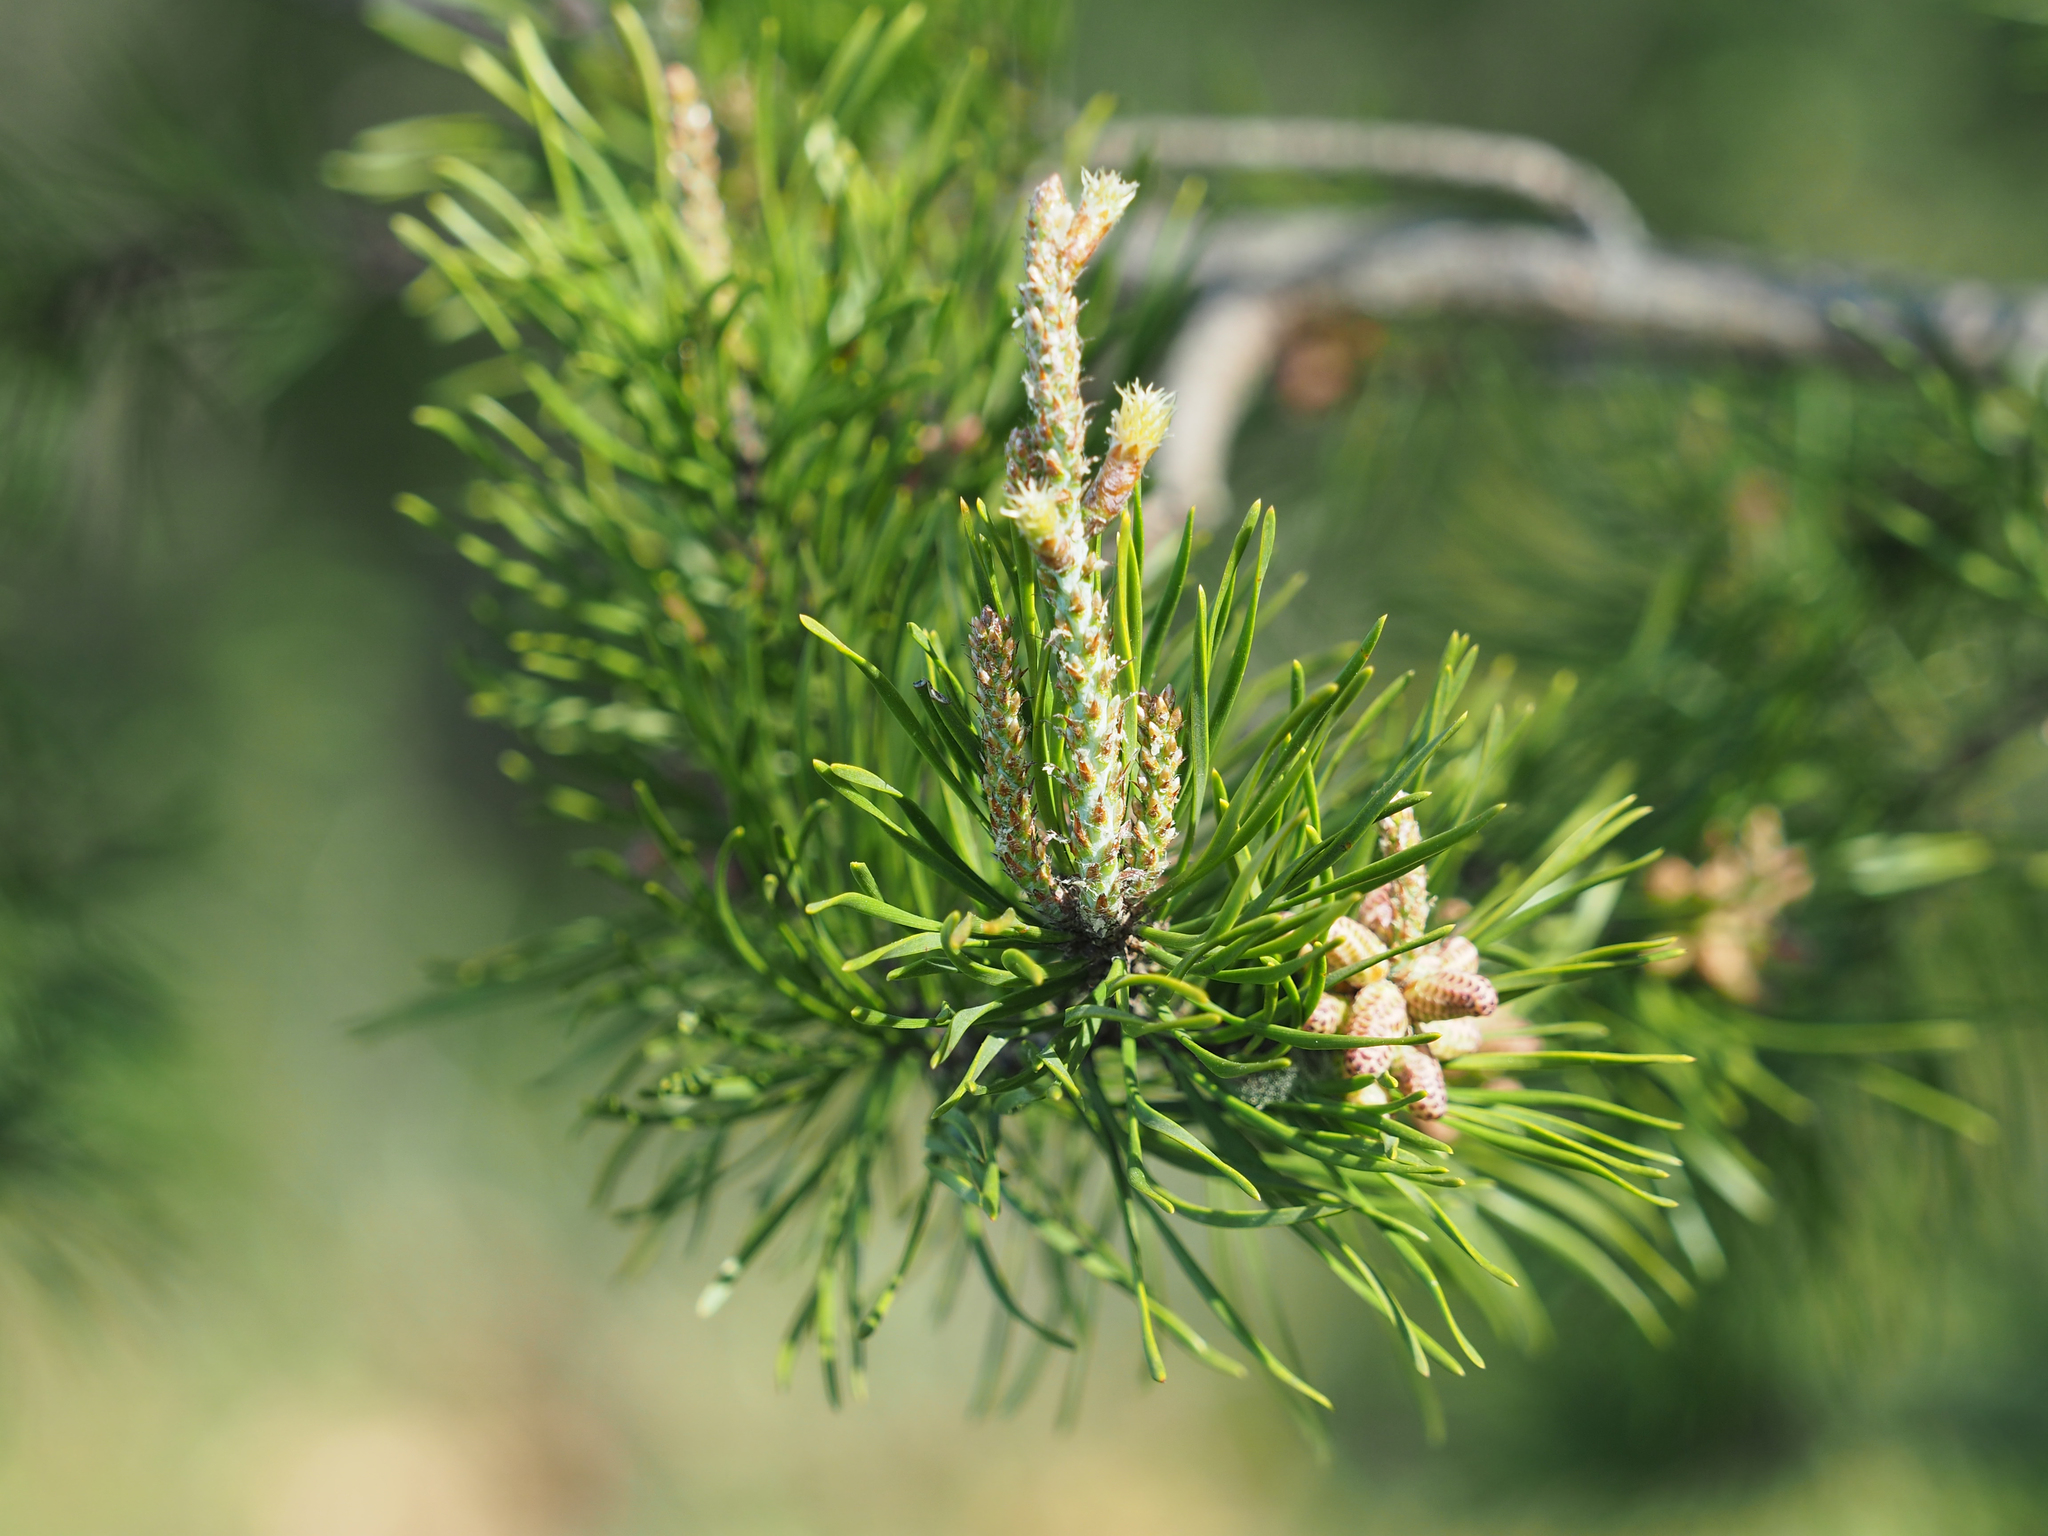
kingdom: Plantae
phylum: Tracheophyta
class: Pinopsida
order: Pinales
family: Pinaceae
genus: Pinus
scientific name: Pinus virginiana
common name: Scrub pine
